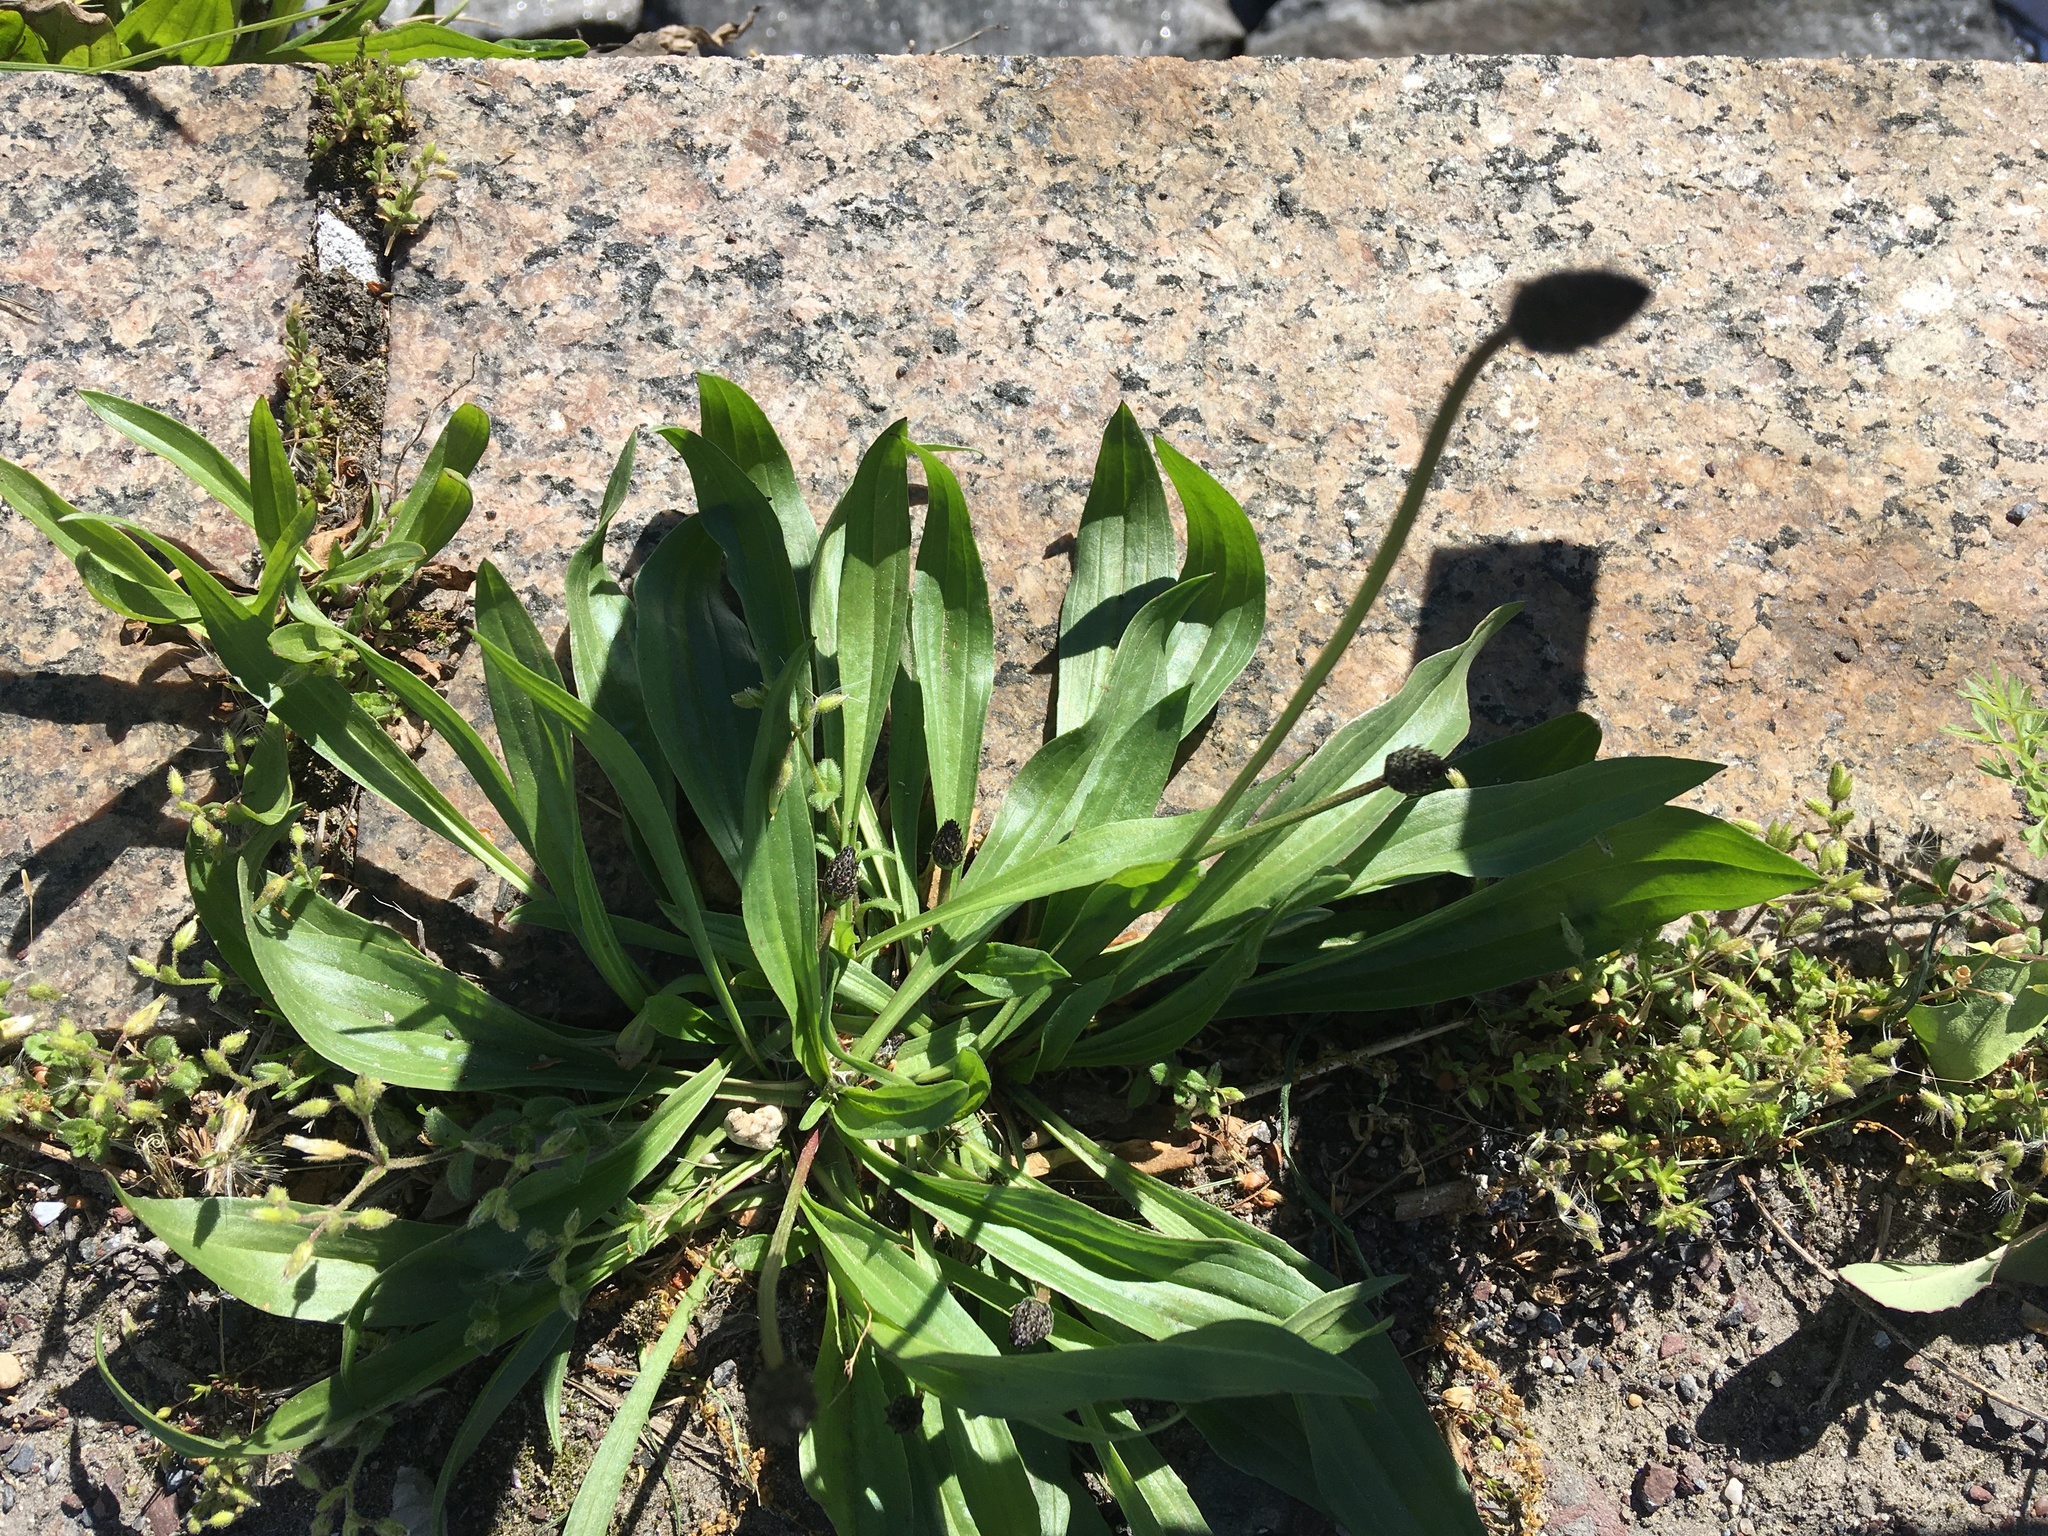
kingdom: Plantae
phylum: Tracheophyta
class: Magnoliopsida
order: Lamiales
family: Plantaginaceae
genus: Plantago
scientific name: Plantago lanceolata
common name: Ribwort plantain
